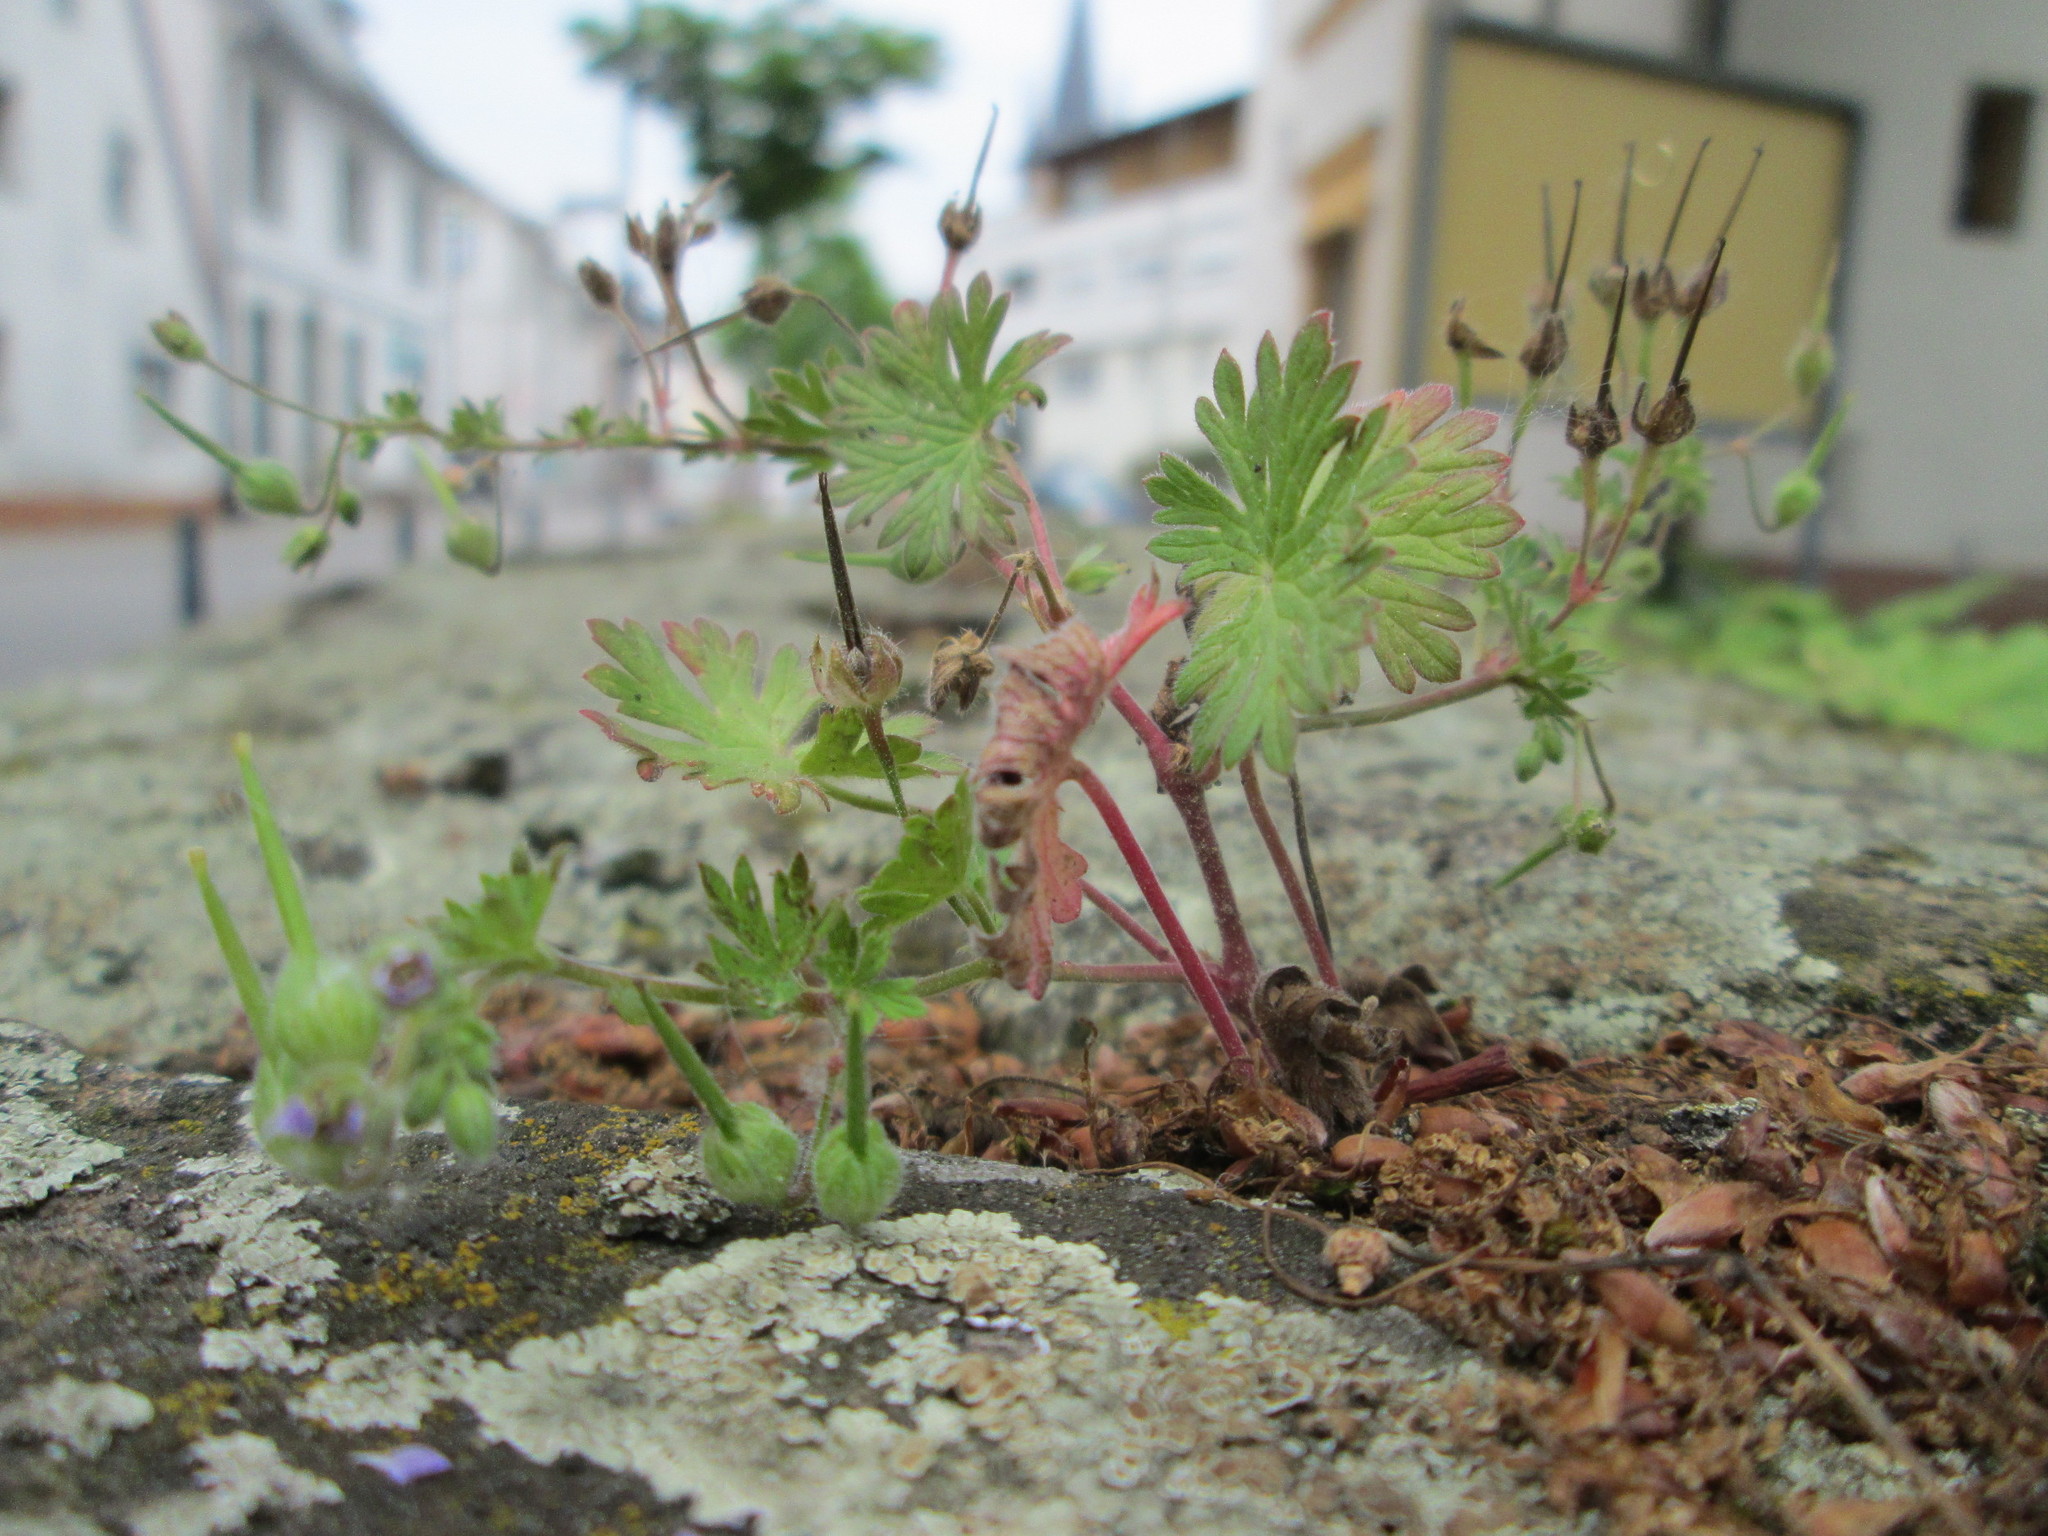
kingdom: Plantae
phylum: Tracheophyta
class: Magnoliopsida
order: Geraniales
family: Geraniaceae
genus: Geranium
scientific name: Geranium pusillum
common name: Small geranium
